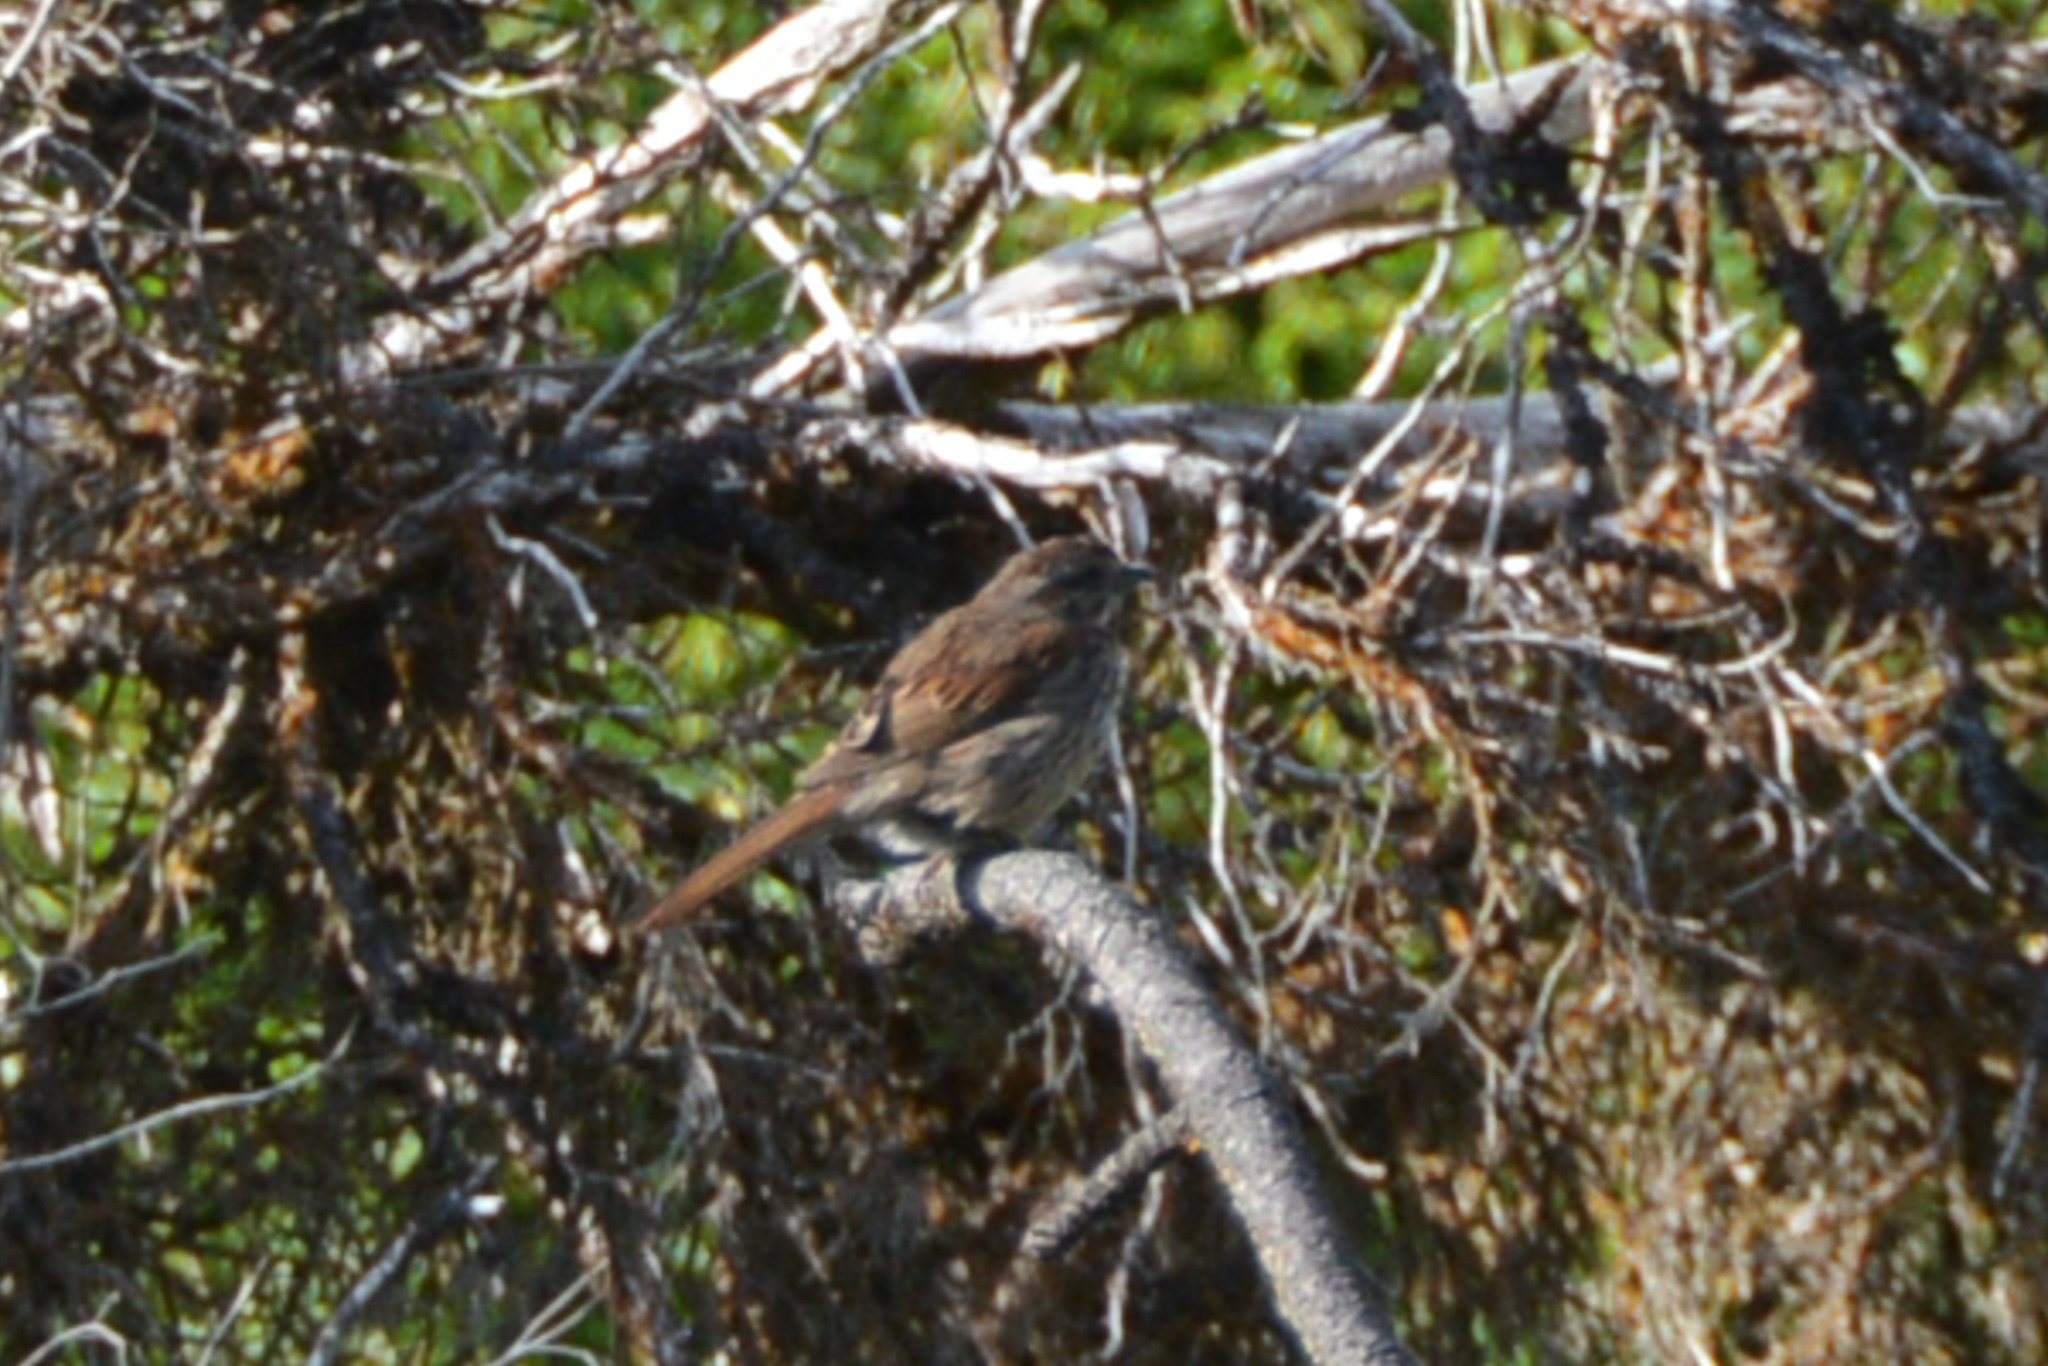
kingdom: Animalia
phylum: Chordata
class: Aves
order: Passeriformes
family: Passerellidae
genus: Melospiza
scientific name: Melospiza melodia
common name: Song sparrow
